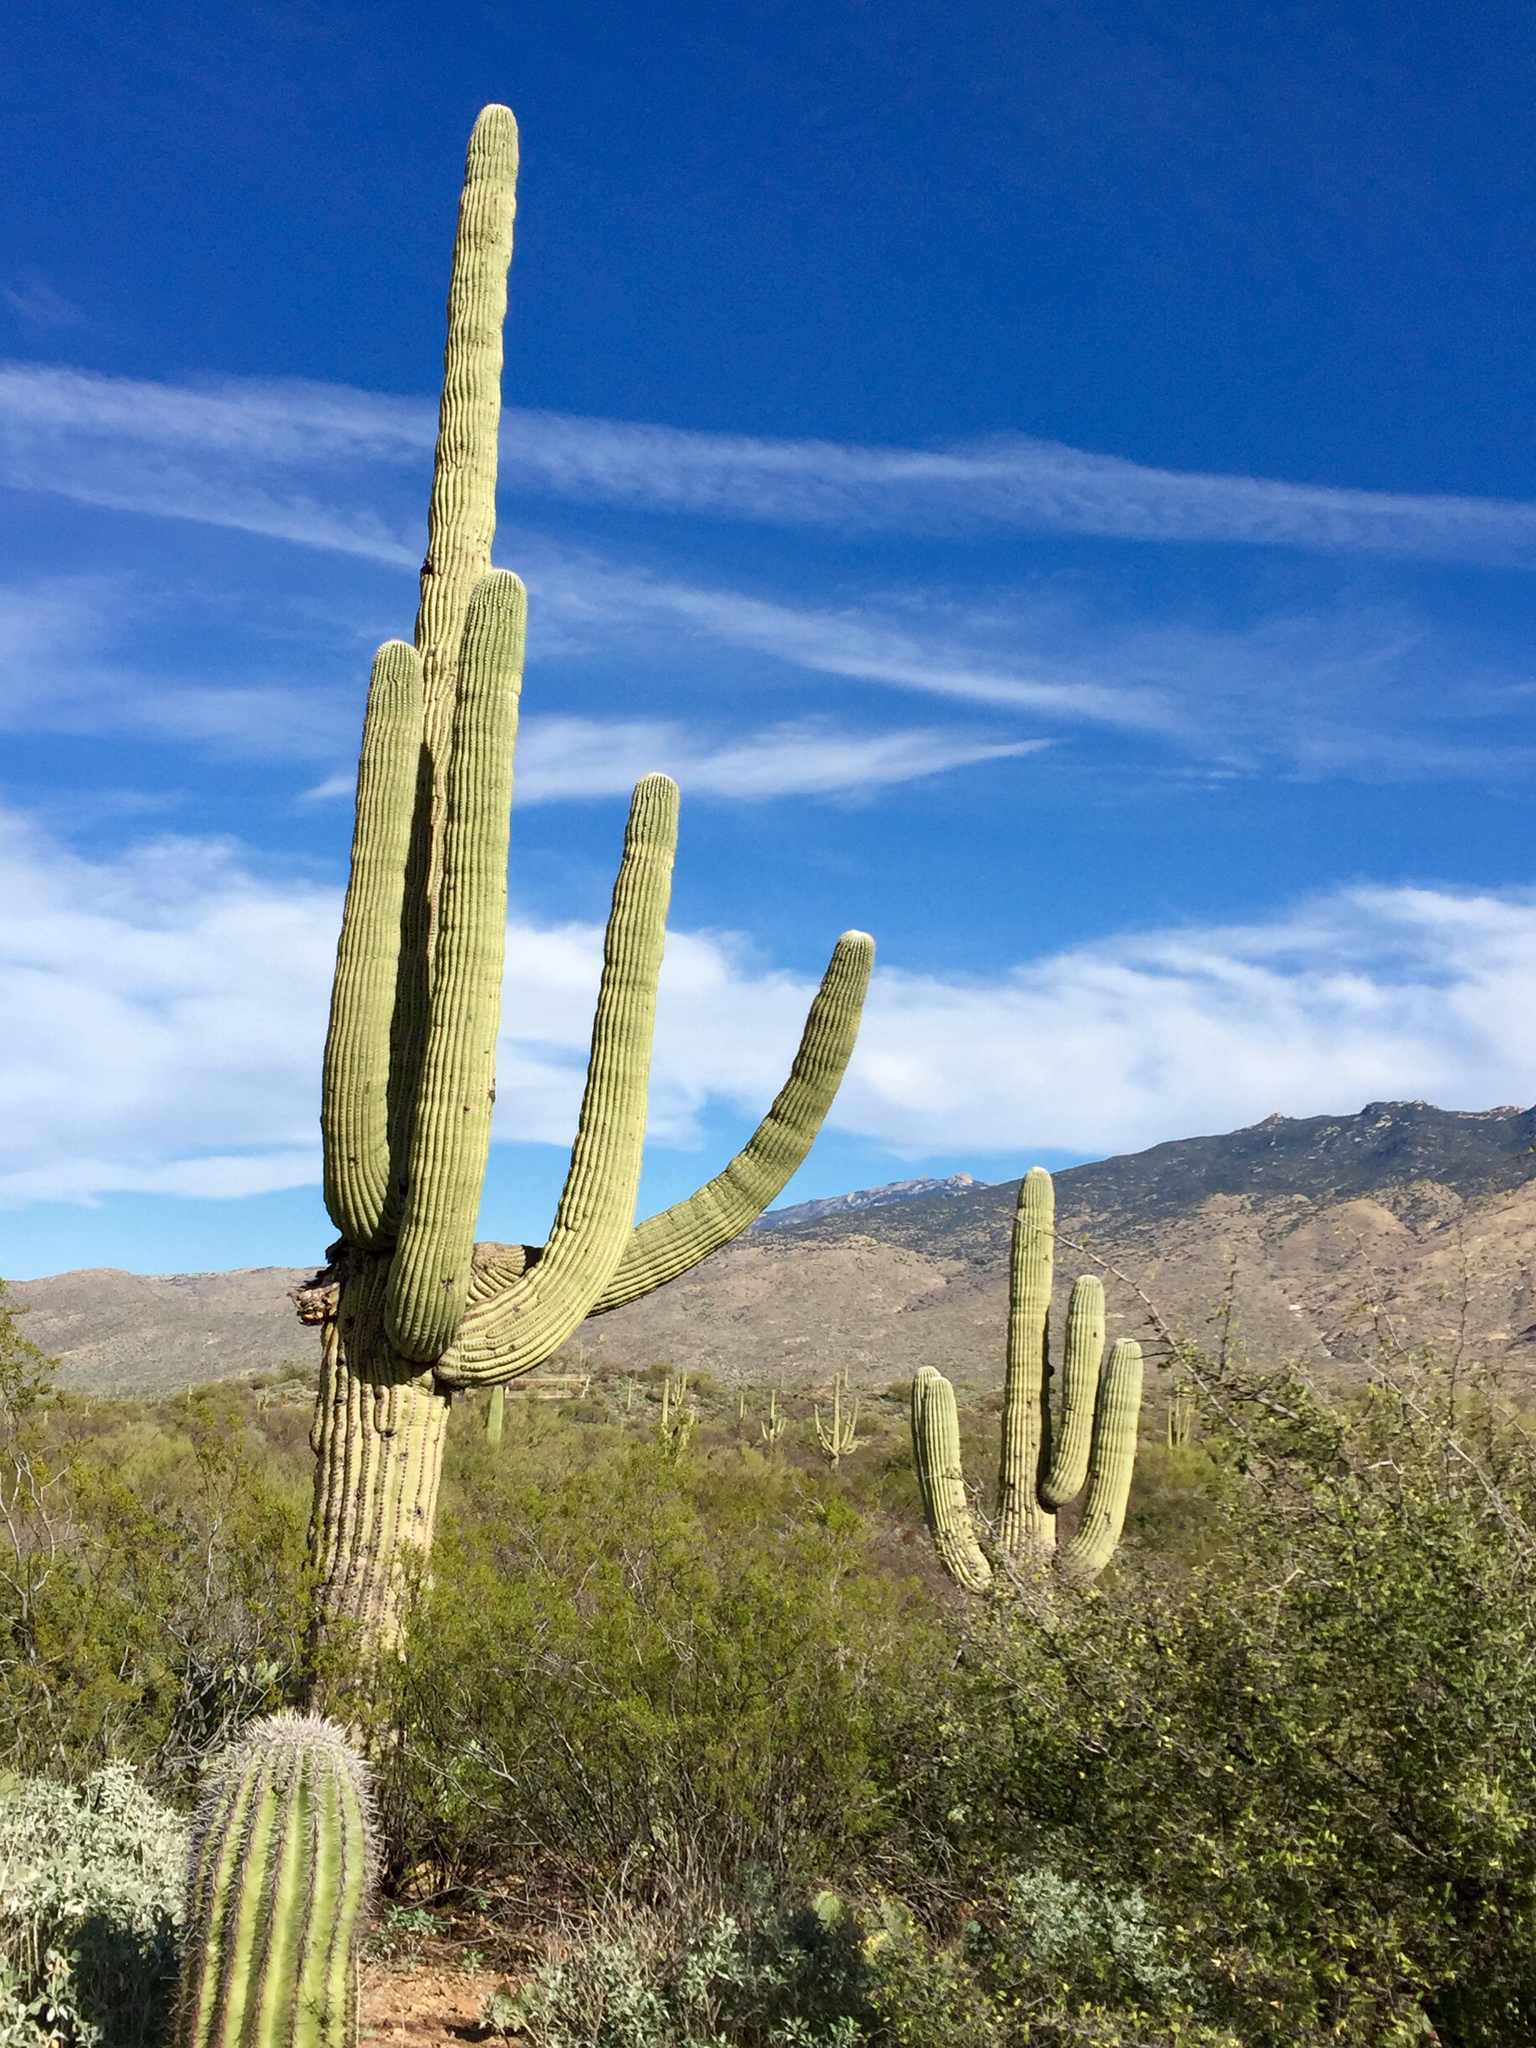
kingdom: Plantae
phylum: Tracheophyta
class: Magnoliopsida
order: Caryophyllales
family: Cactaceae
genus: Carnegiea
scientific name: Carnegiea gigantea
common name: Saguaro
